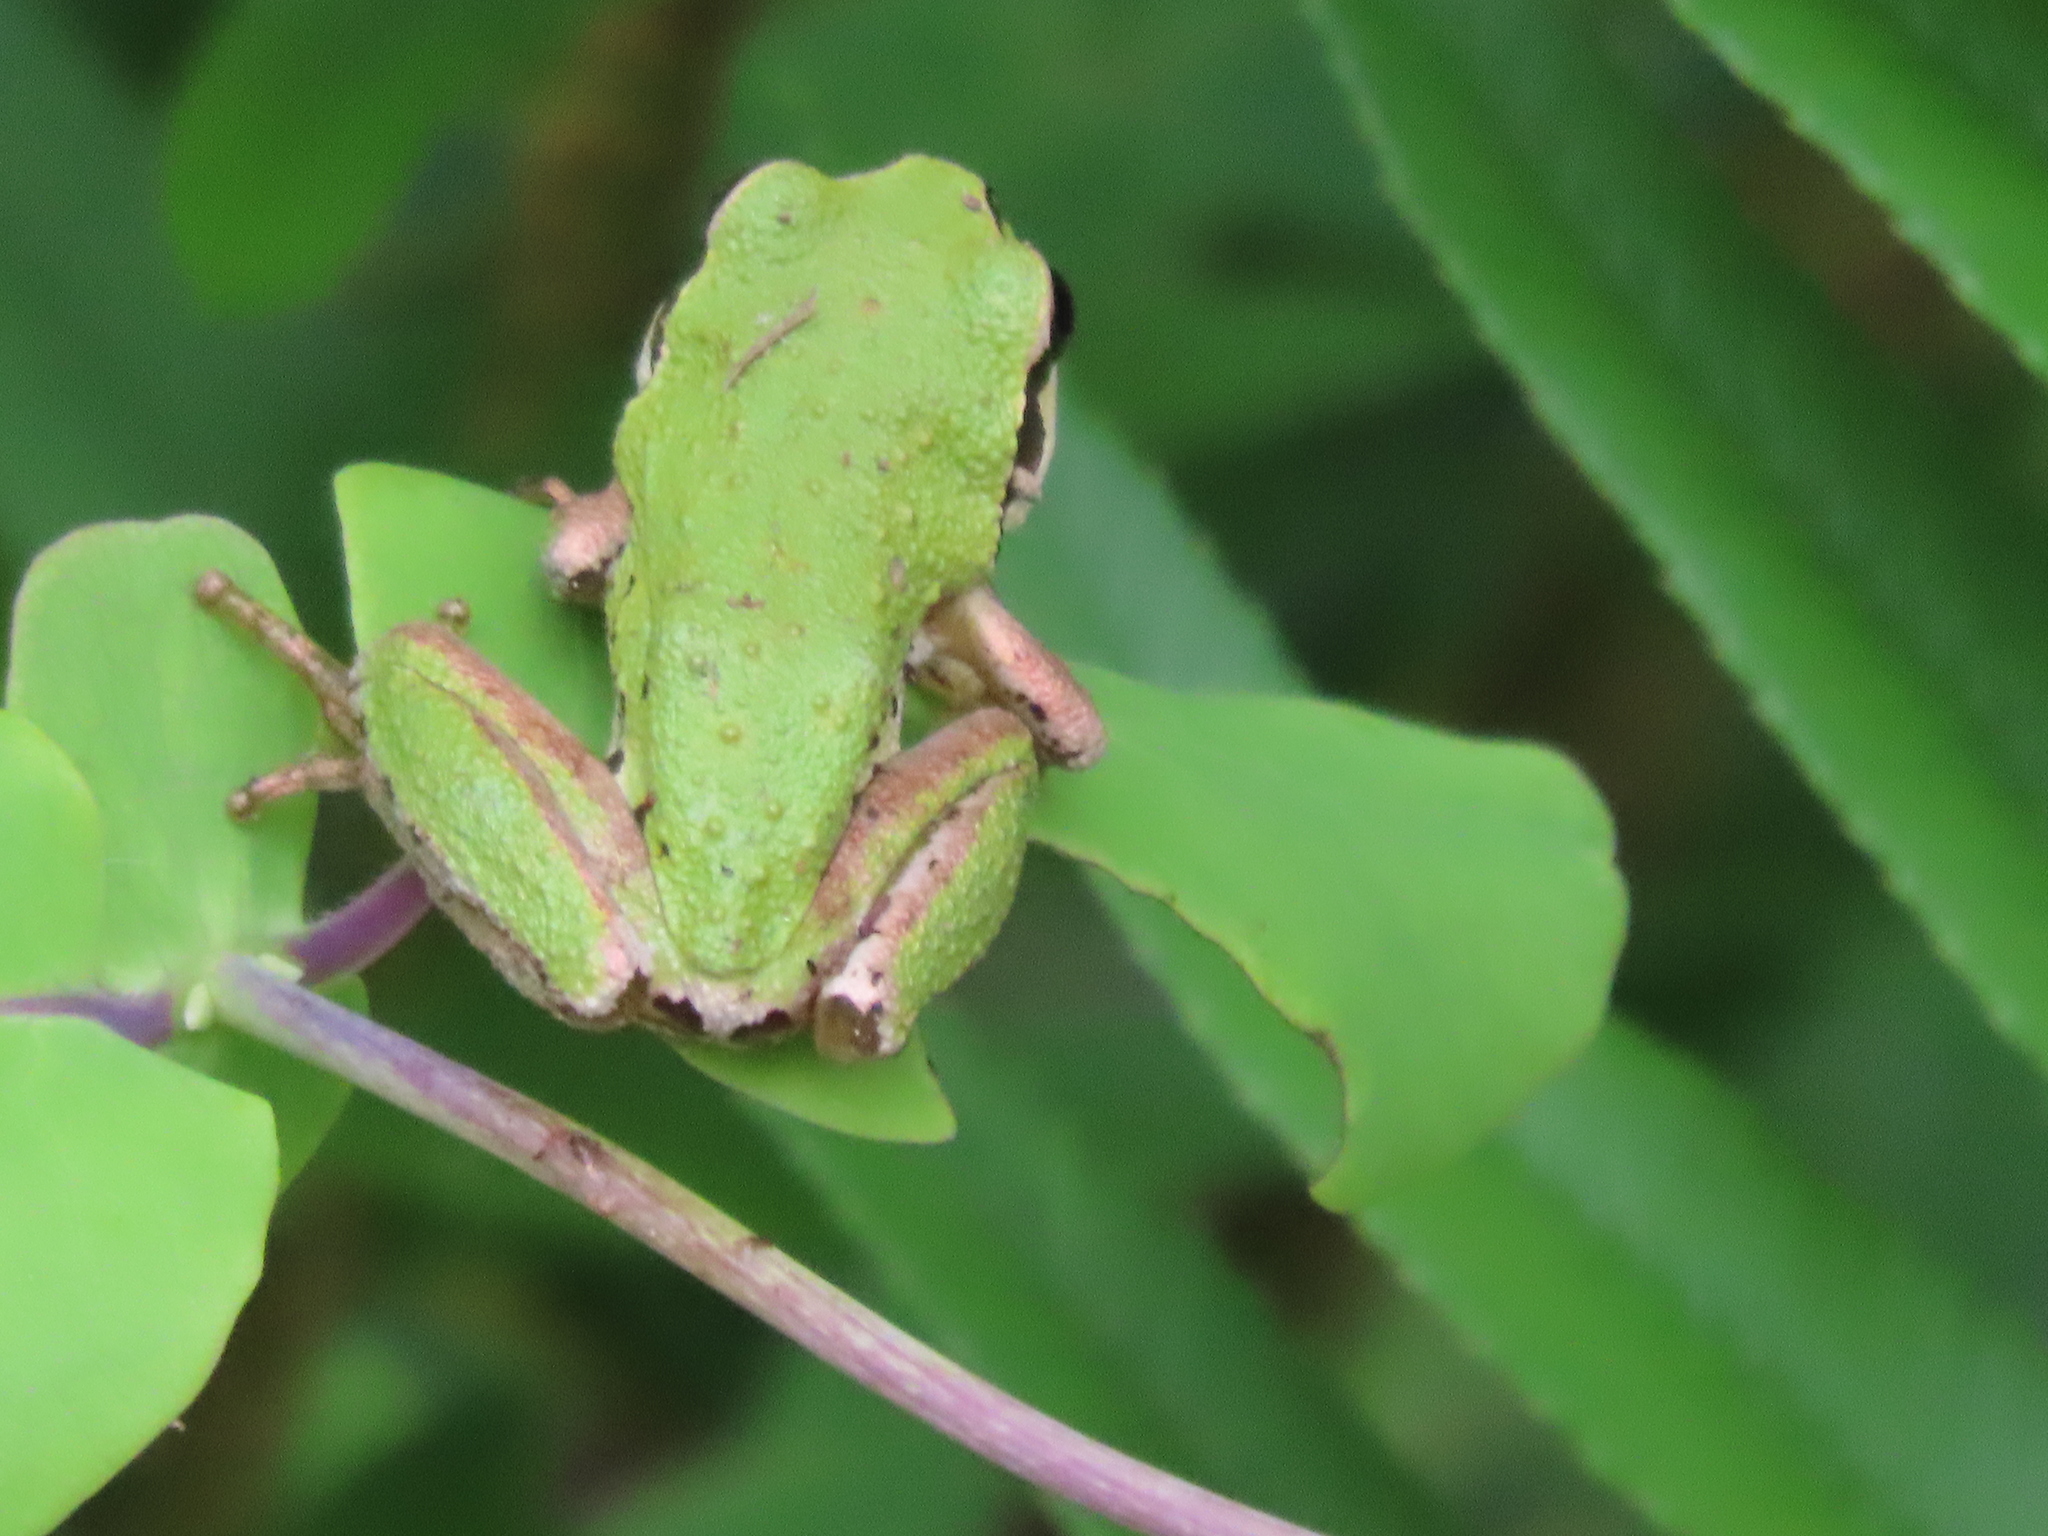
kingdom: Animalia
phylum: Chordata
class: Amphibia
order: Anura
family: Hylidae
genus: Pseudacris
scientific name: Pseudacris regilla
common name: Pacific chorus frog
